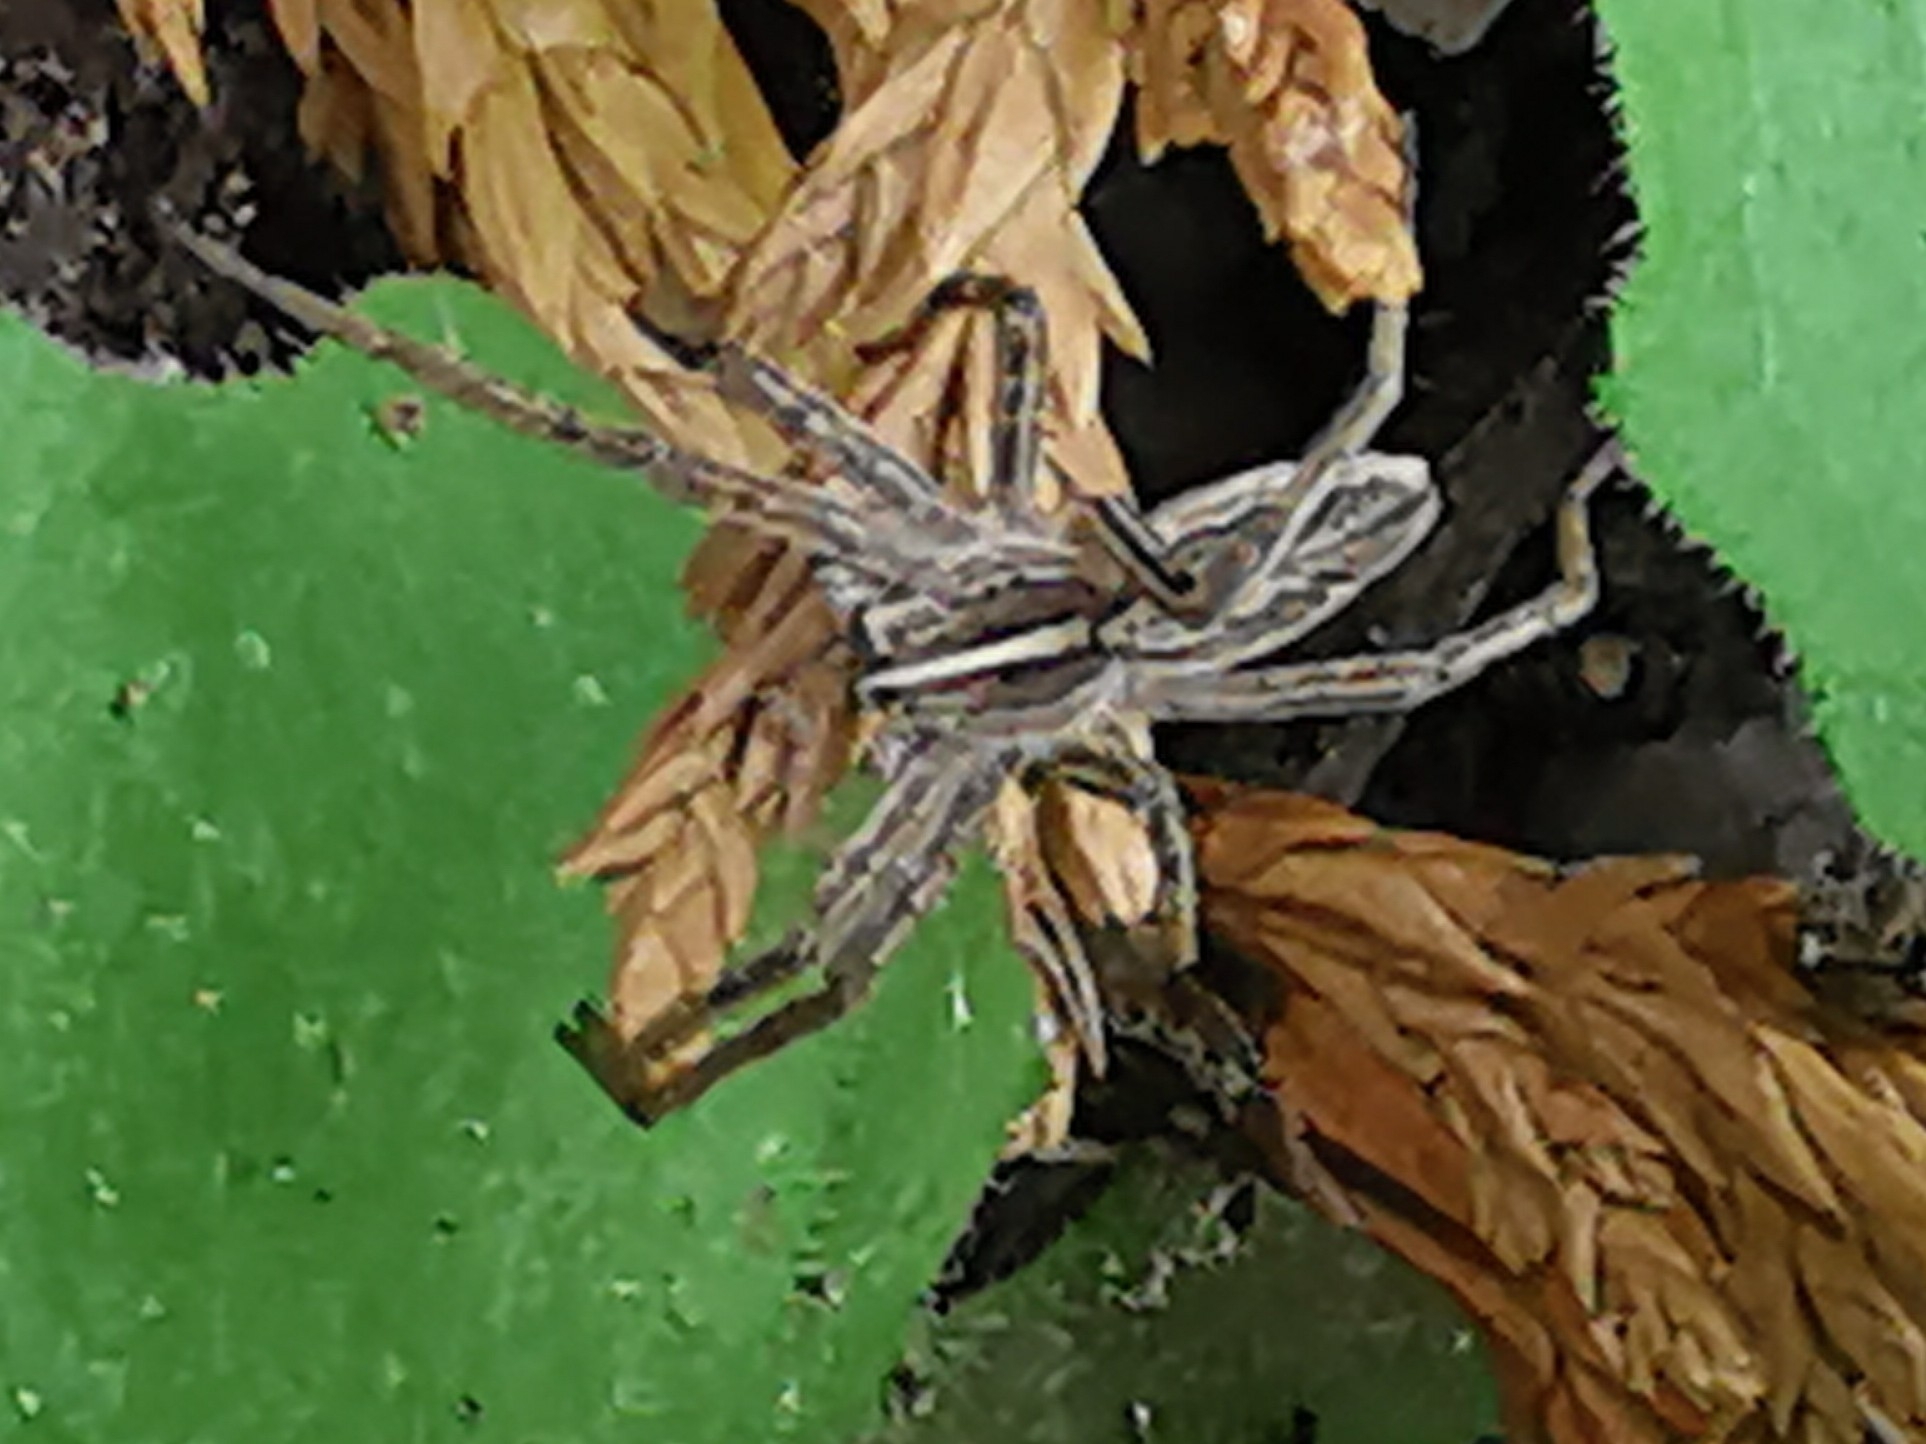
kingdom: Animalia
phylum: Arthropoda
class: Arachnida
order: Araneae
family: Pisauridae
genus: Pisaura
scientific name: Pisaura mirabilis
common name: Tent spider
